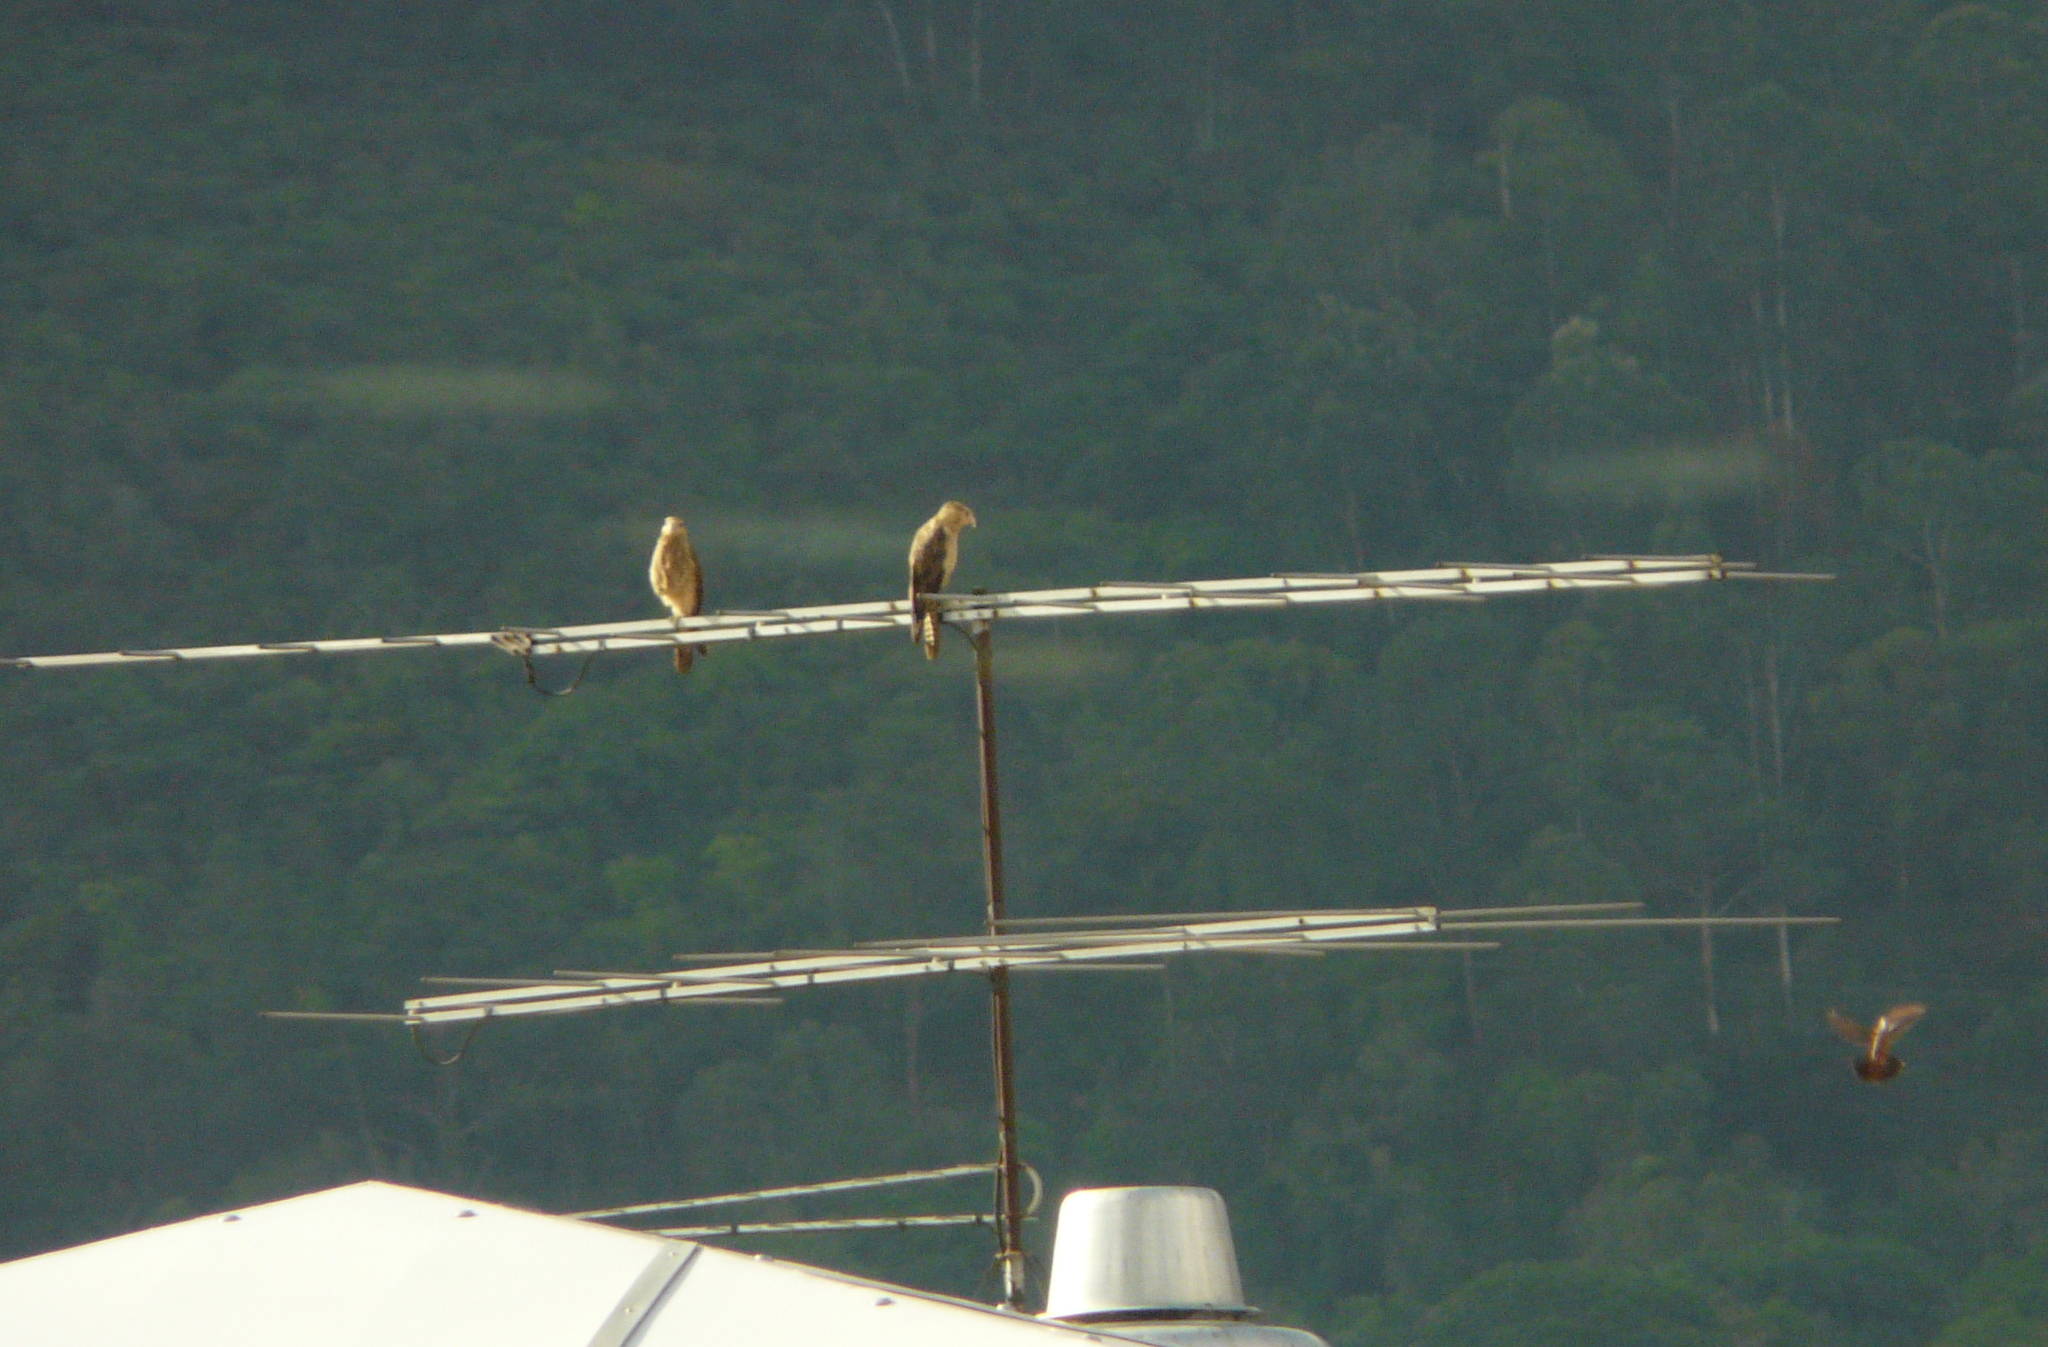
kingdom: Animalia
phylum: Chordata
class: Aves
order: Falconiformes
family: Falconidae
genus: Daptrius
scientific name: Daptrius
